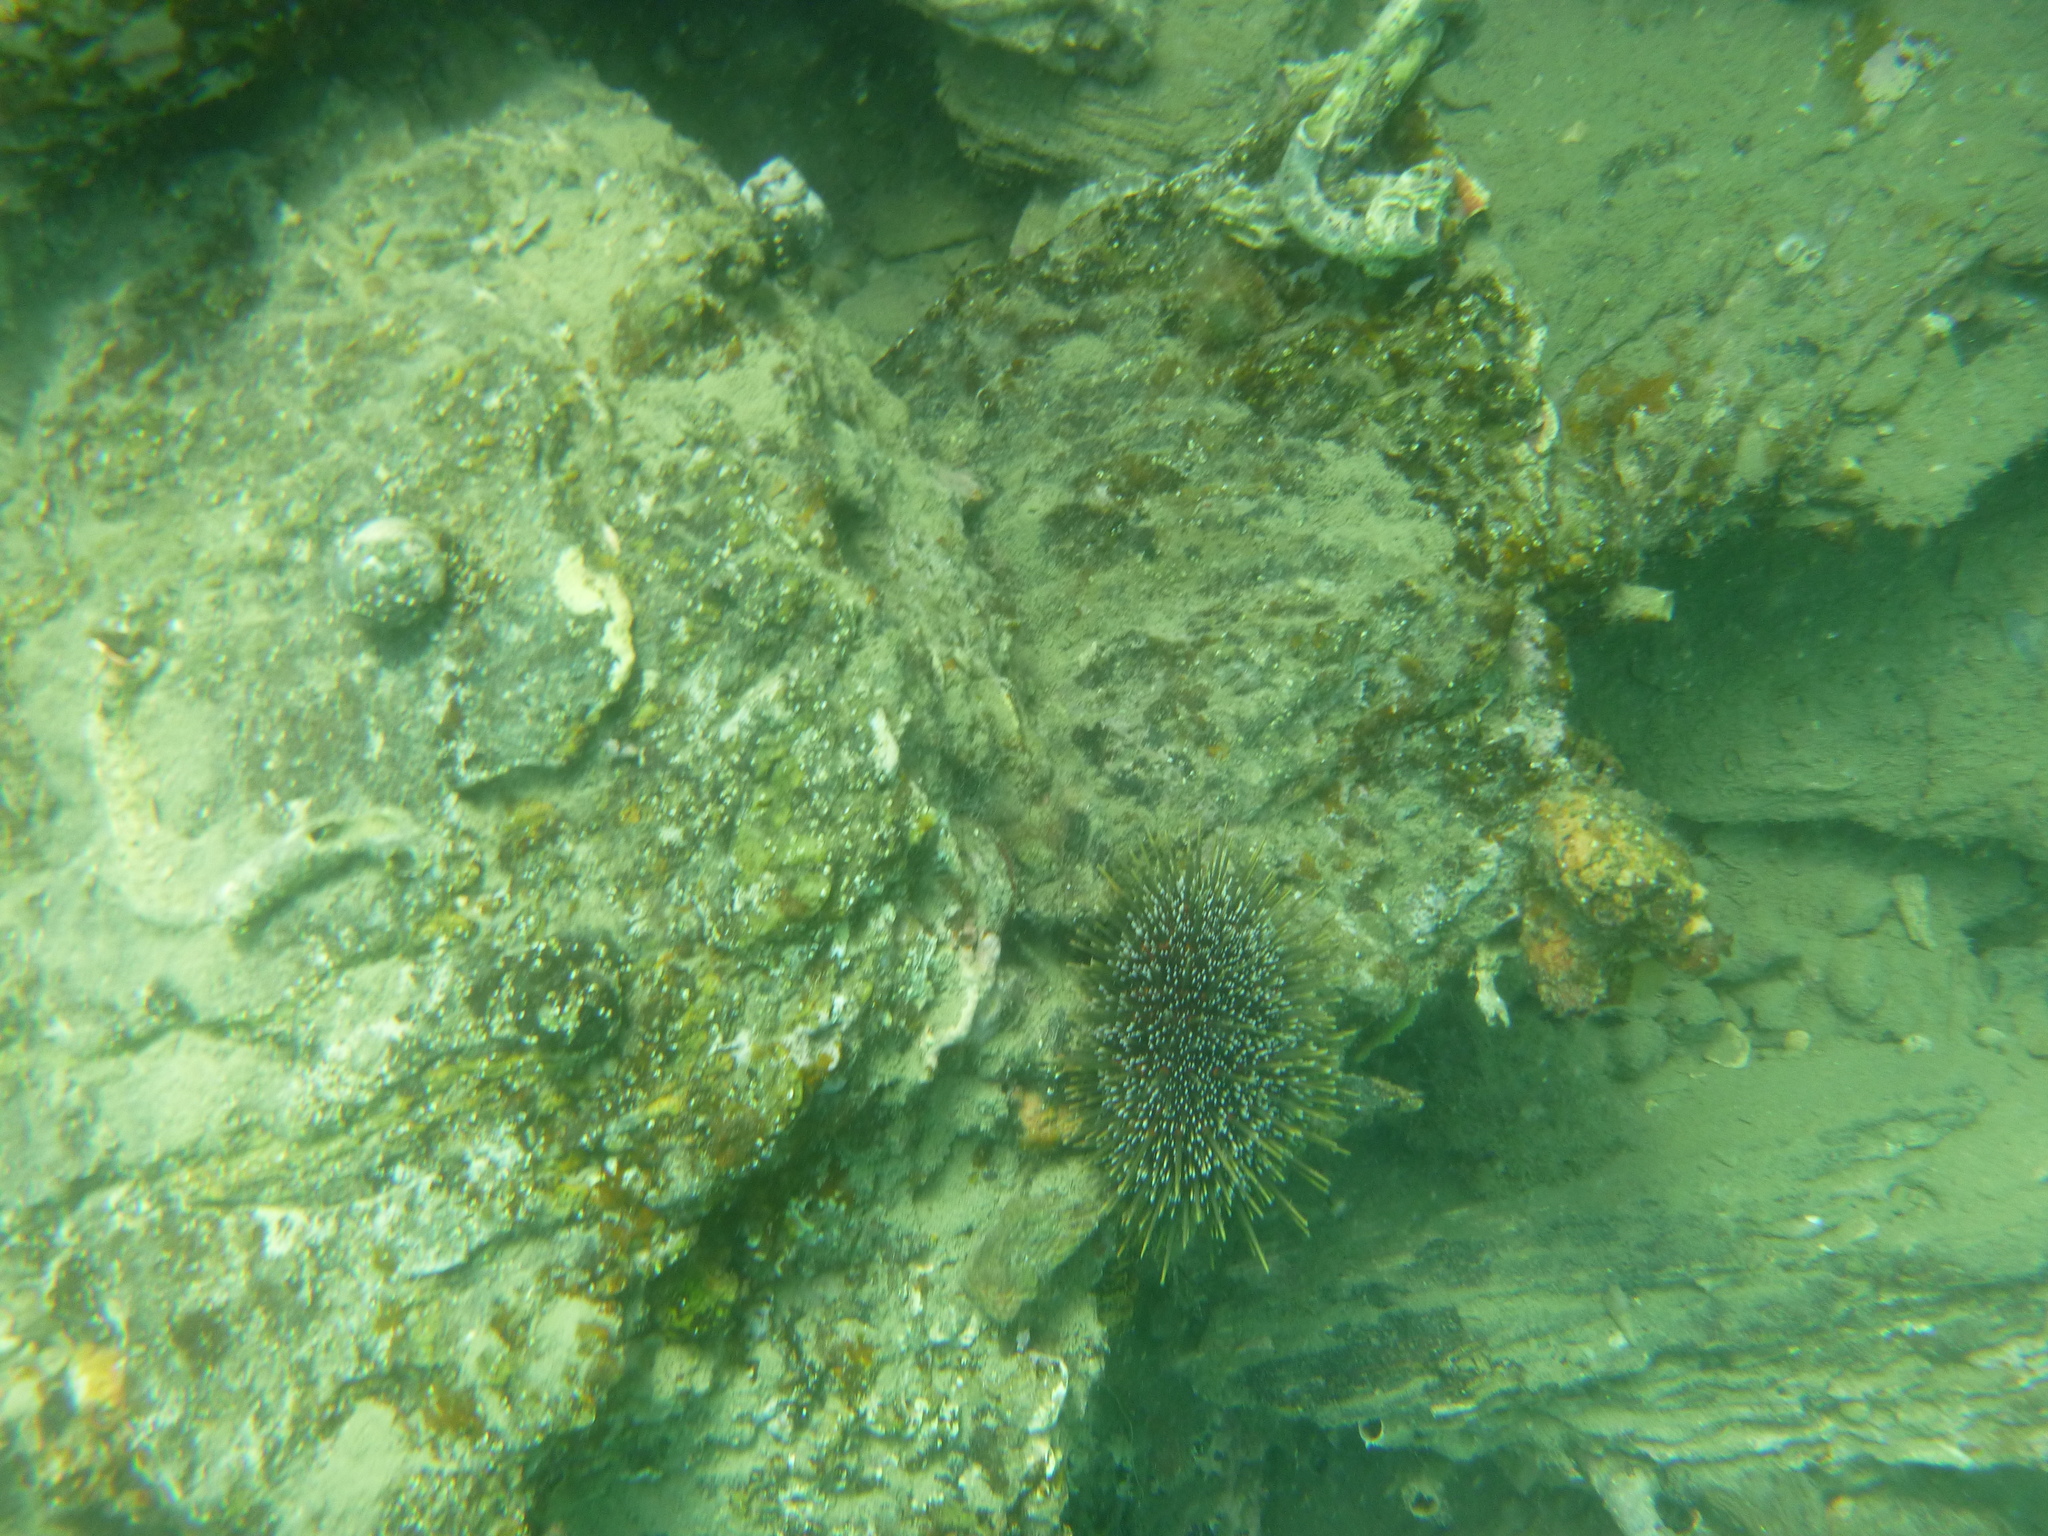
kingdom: Animalia
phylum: Echinodermata
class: Echinoidea
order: Camarodonta
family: Echinometridae
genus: Evechinus
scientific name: Evechinus chloroticus
